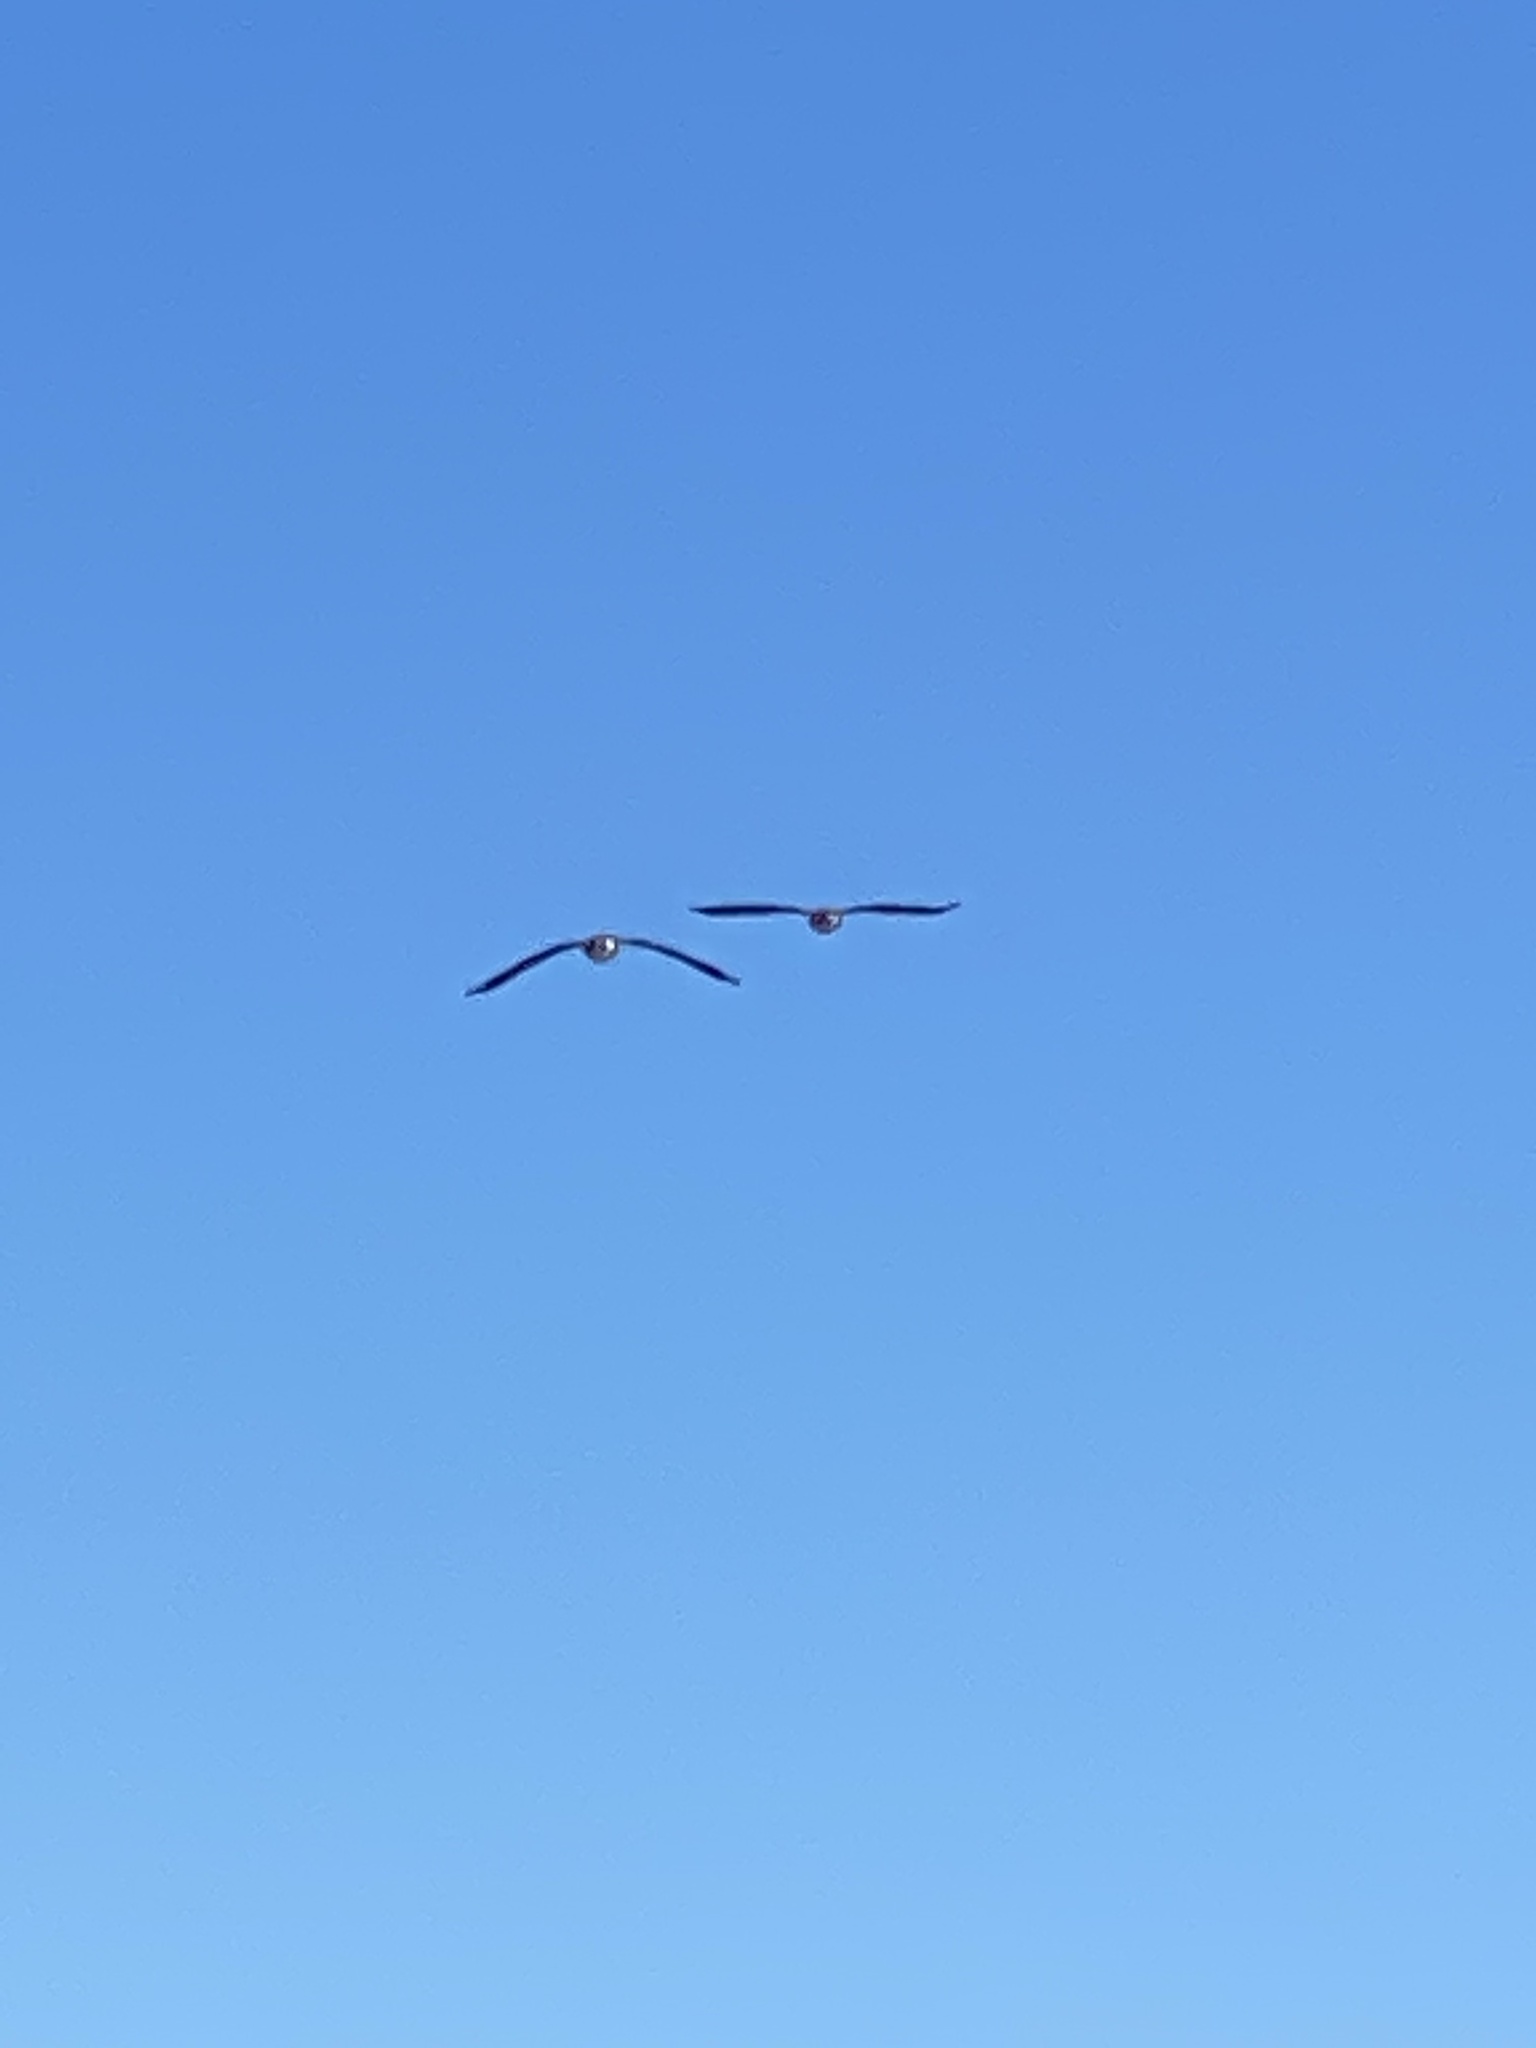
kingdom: Animalia
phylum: Chordata
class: Aves
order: Anseriformes
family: Anatidae
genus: Branta
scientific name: Branta canadensis
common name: Canada goose
